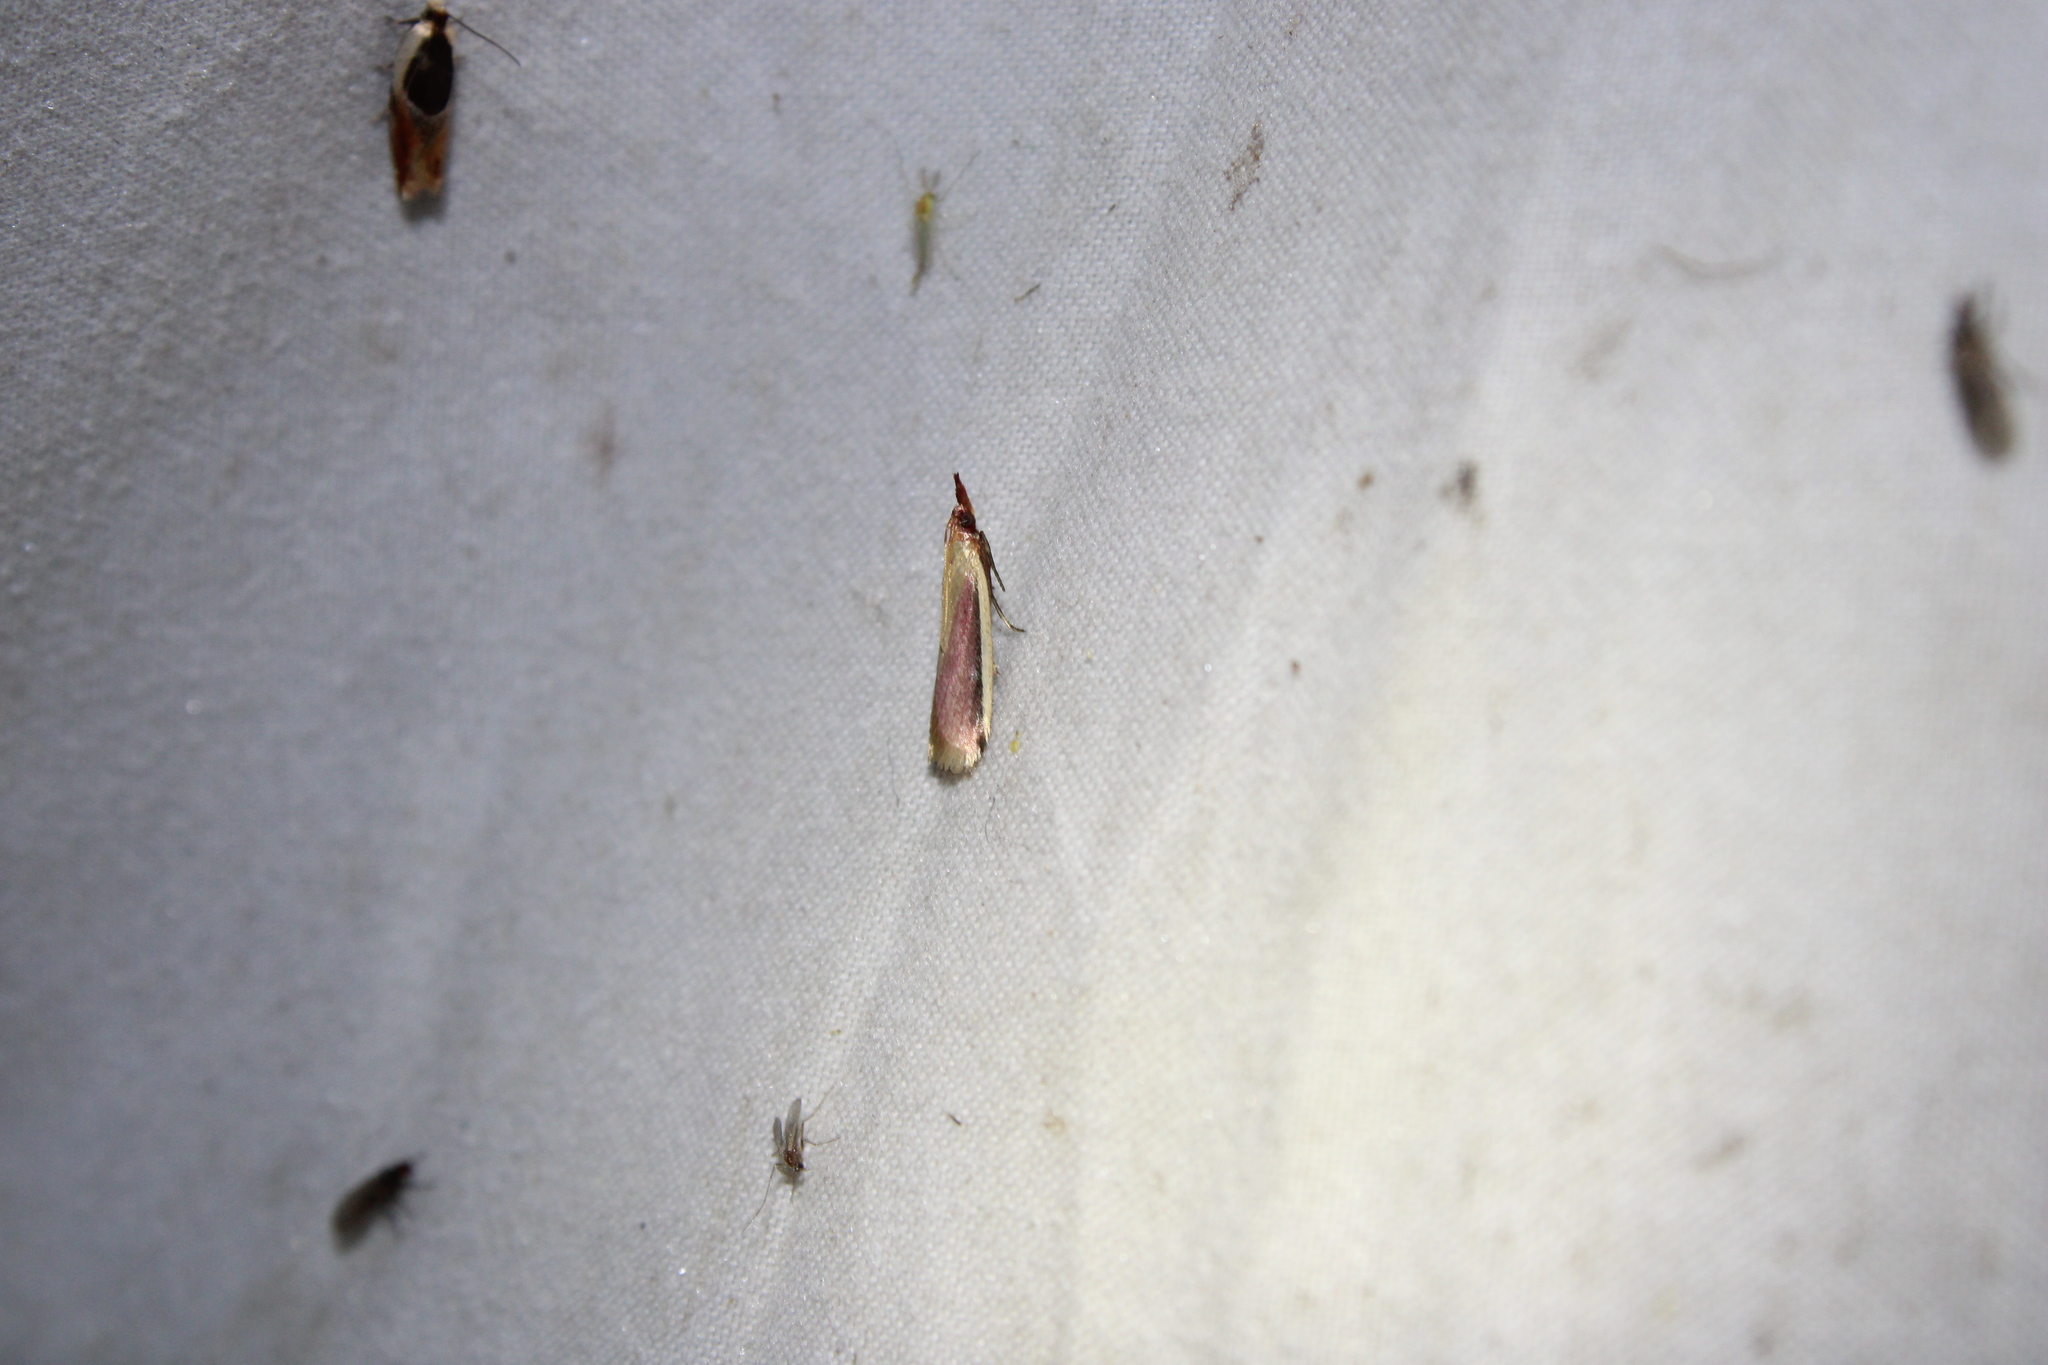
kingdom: Animalia
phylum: Arthropoda
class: Insecta
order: Lepidoptera
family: Pyralidae
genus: Peoria
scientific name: Peoria approximella
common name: Carmine snout
